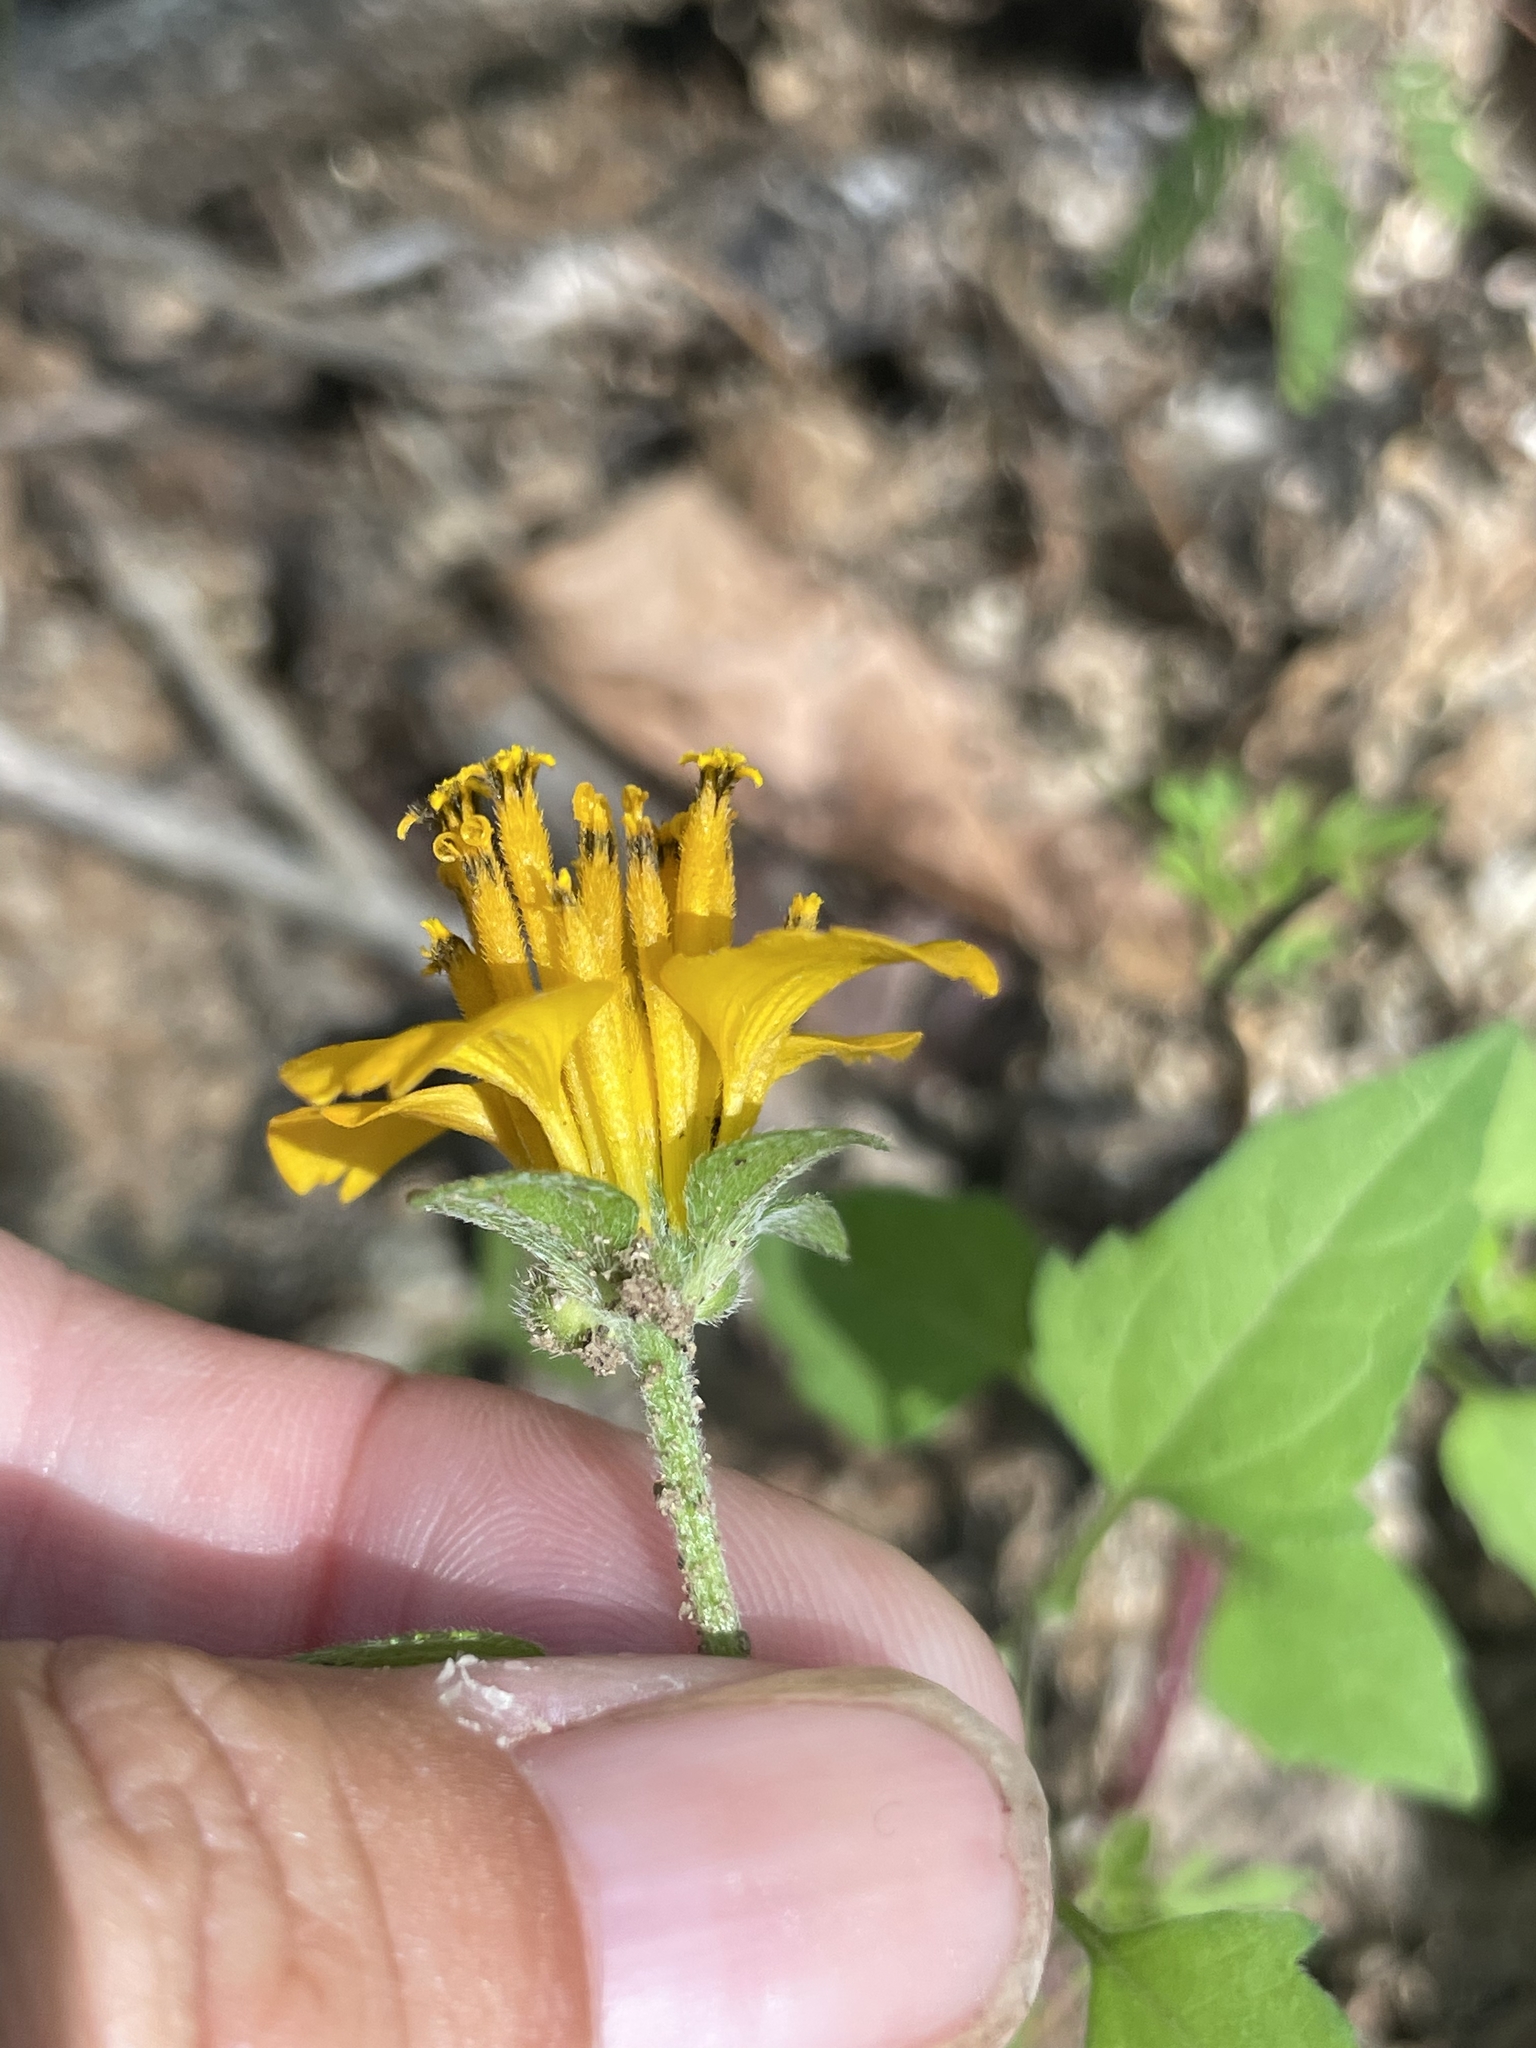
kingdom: Plantae
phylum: Tracheophyta
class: Magnoliopsida
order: Asterales
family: Asteraceae
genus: Sclerocarpus
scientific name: Sclerocarpus divaricatus
